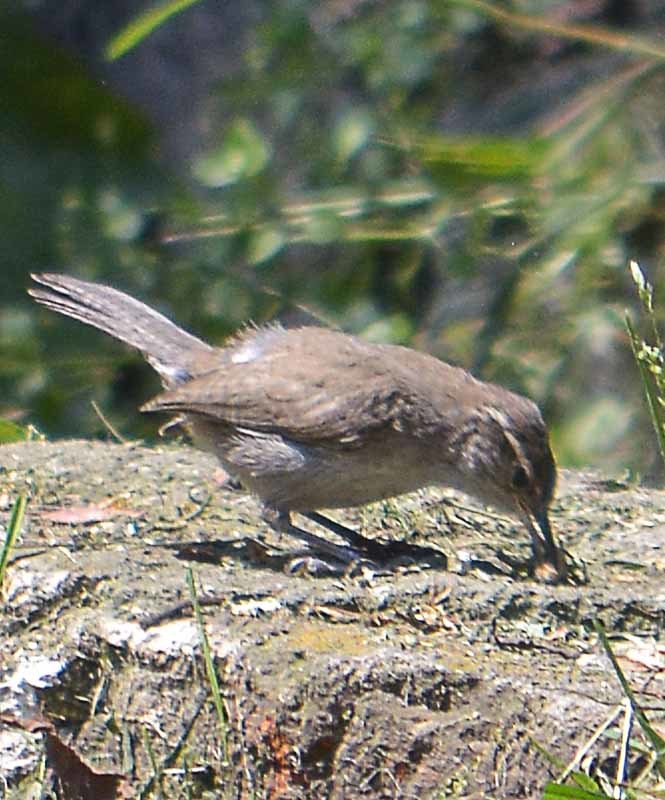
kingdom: Animalia
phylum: Chordata
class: Aves
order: Passeriformes
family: Troglodytidae
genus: Thryomanes
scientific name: Thryomanes bewickii
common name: Bewick's wren
